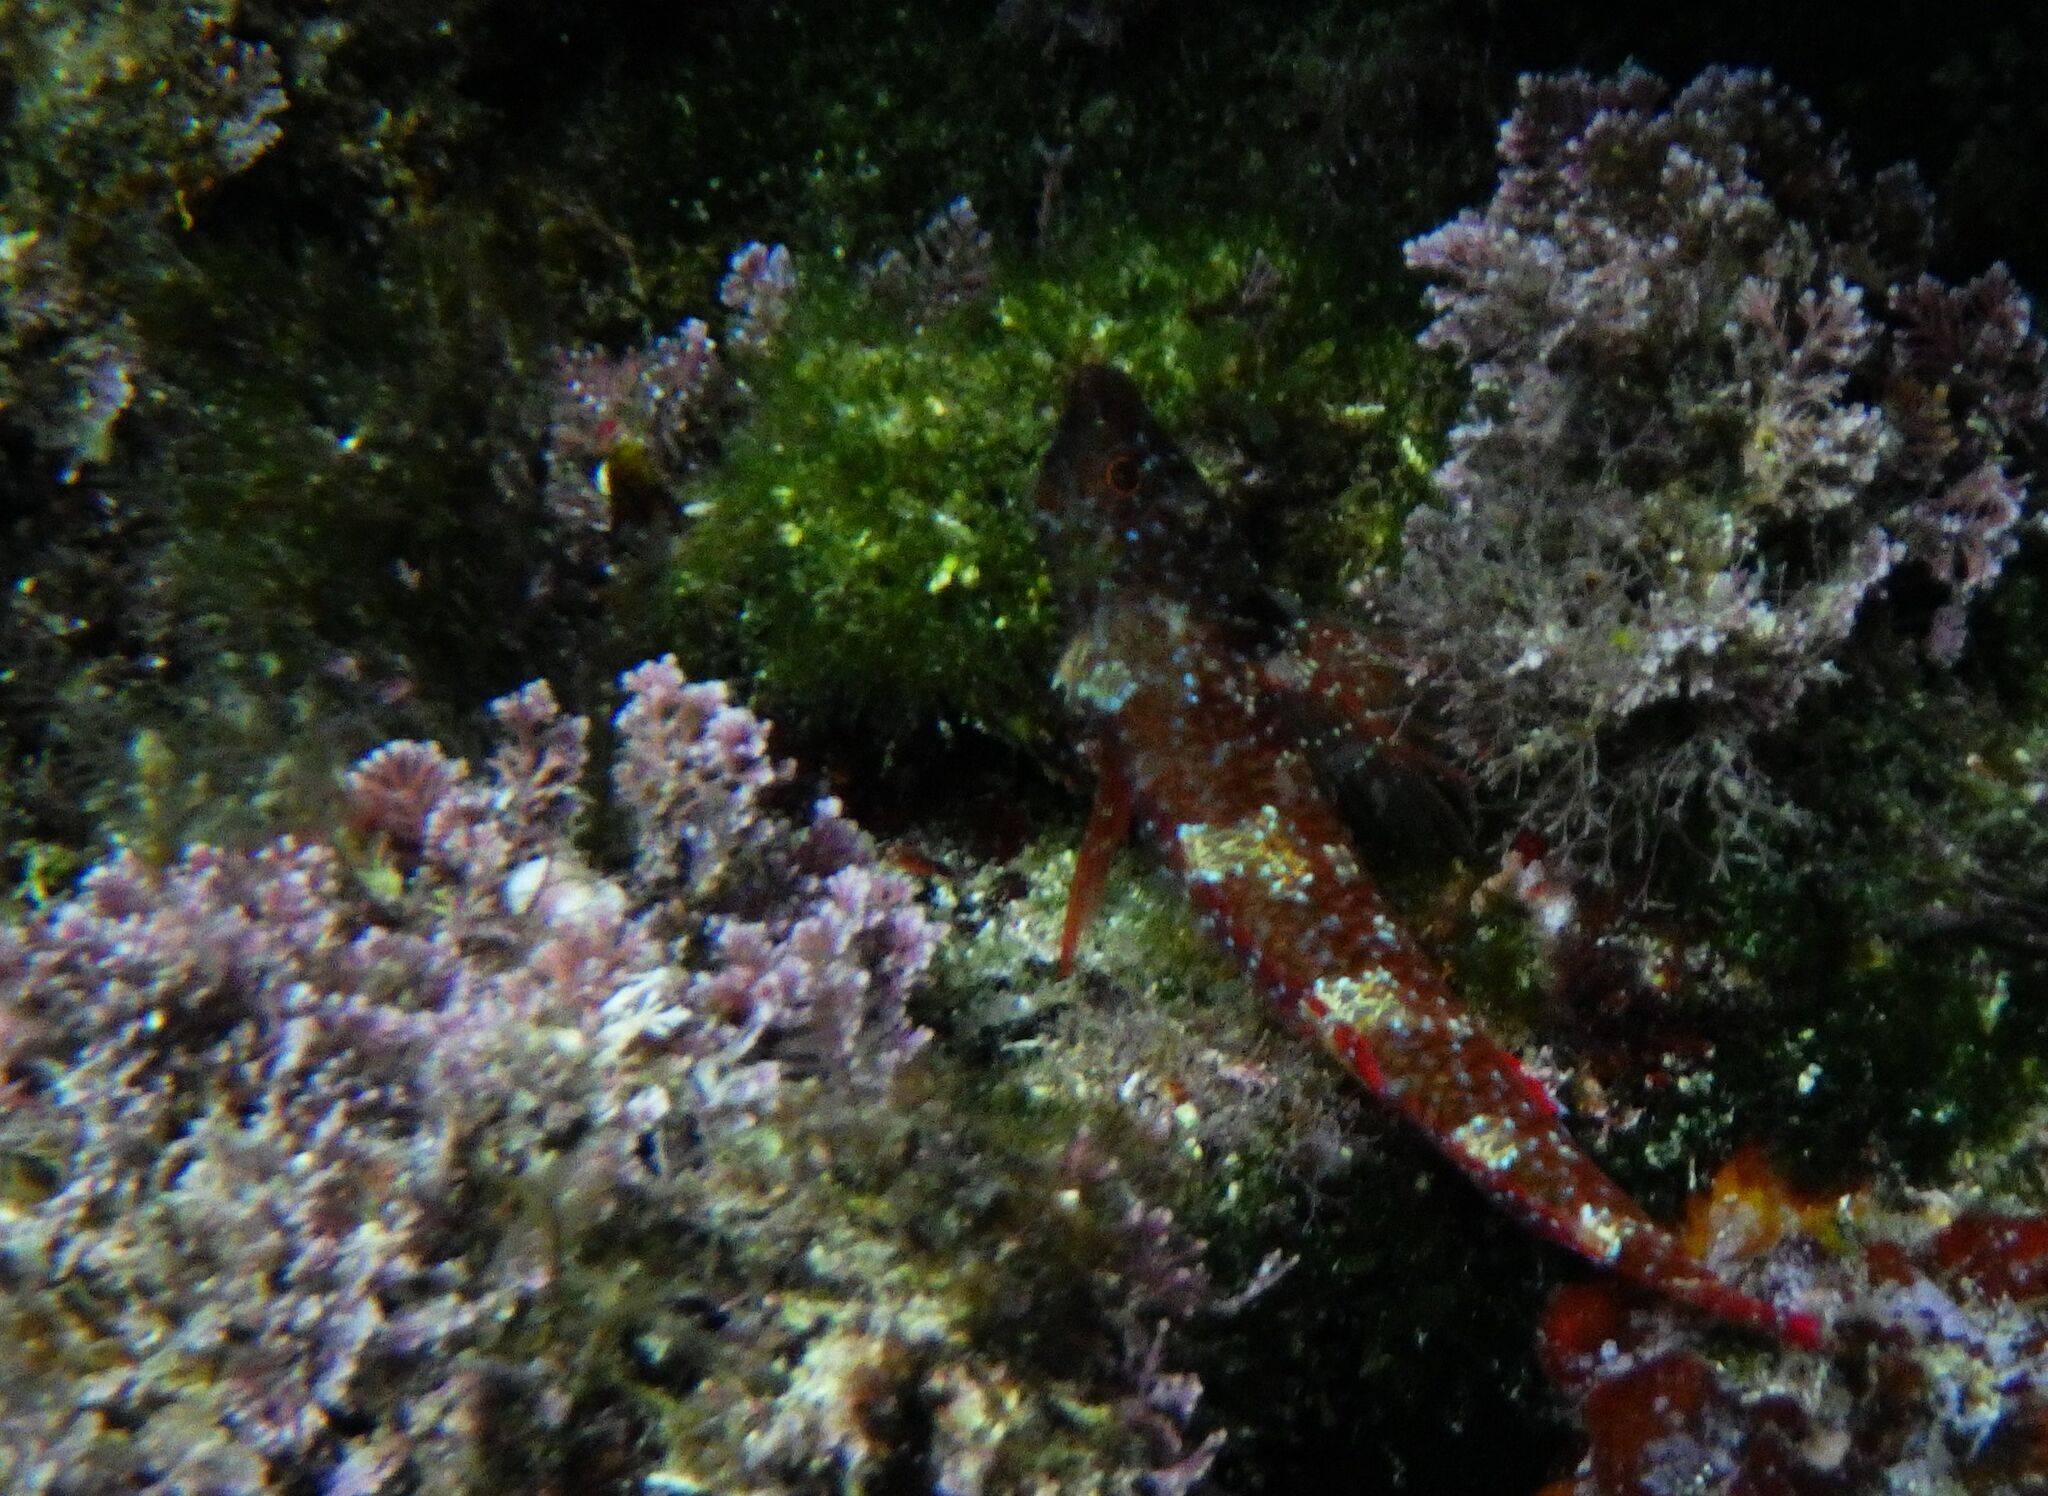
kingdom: Animalia
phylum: Chordata
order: Perciformes
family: Tripterygiidae
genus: Tripterygion
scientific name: Tripterygion tripteronotum
